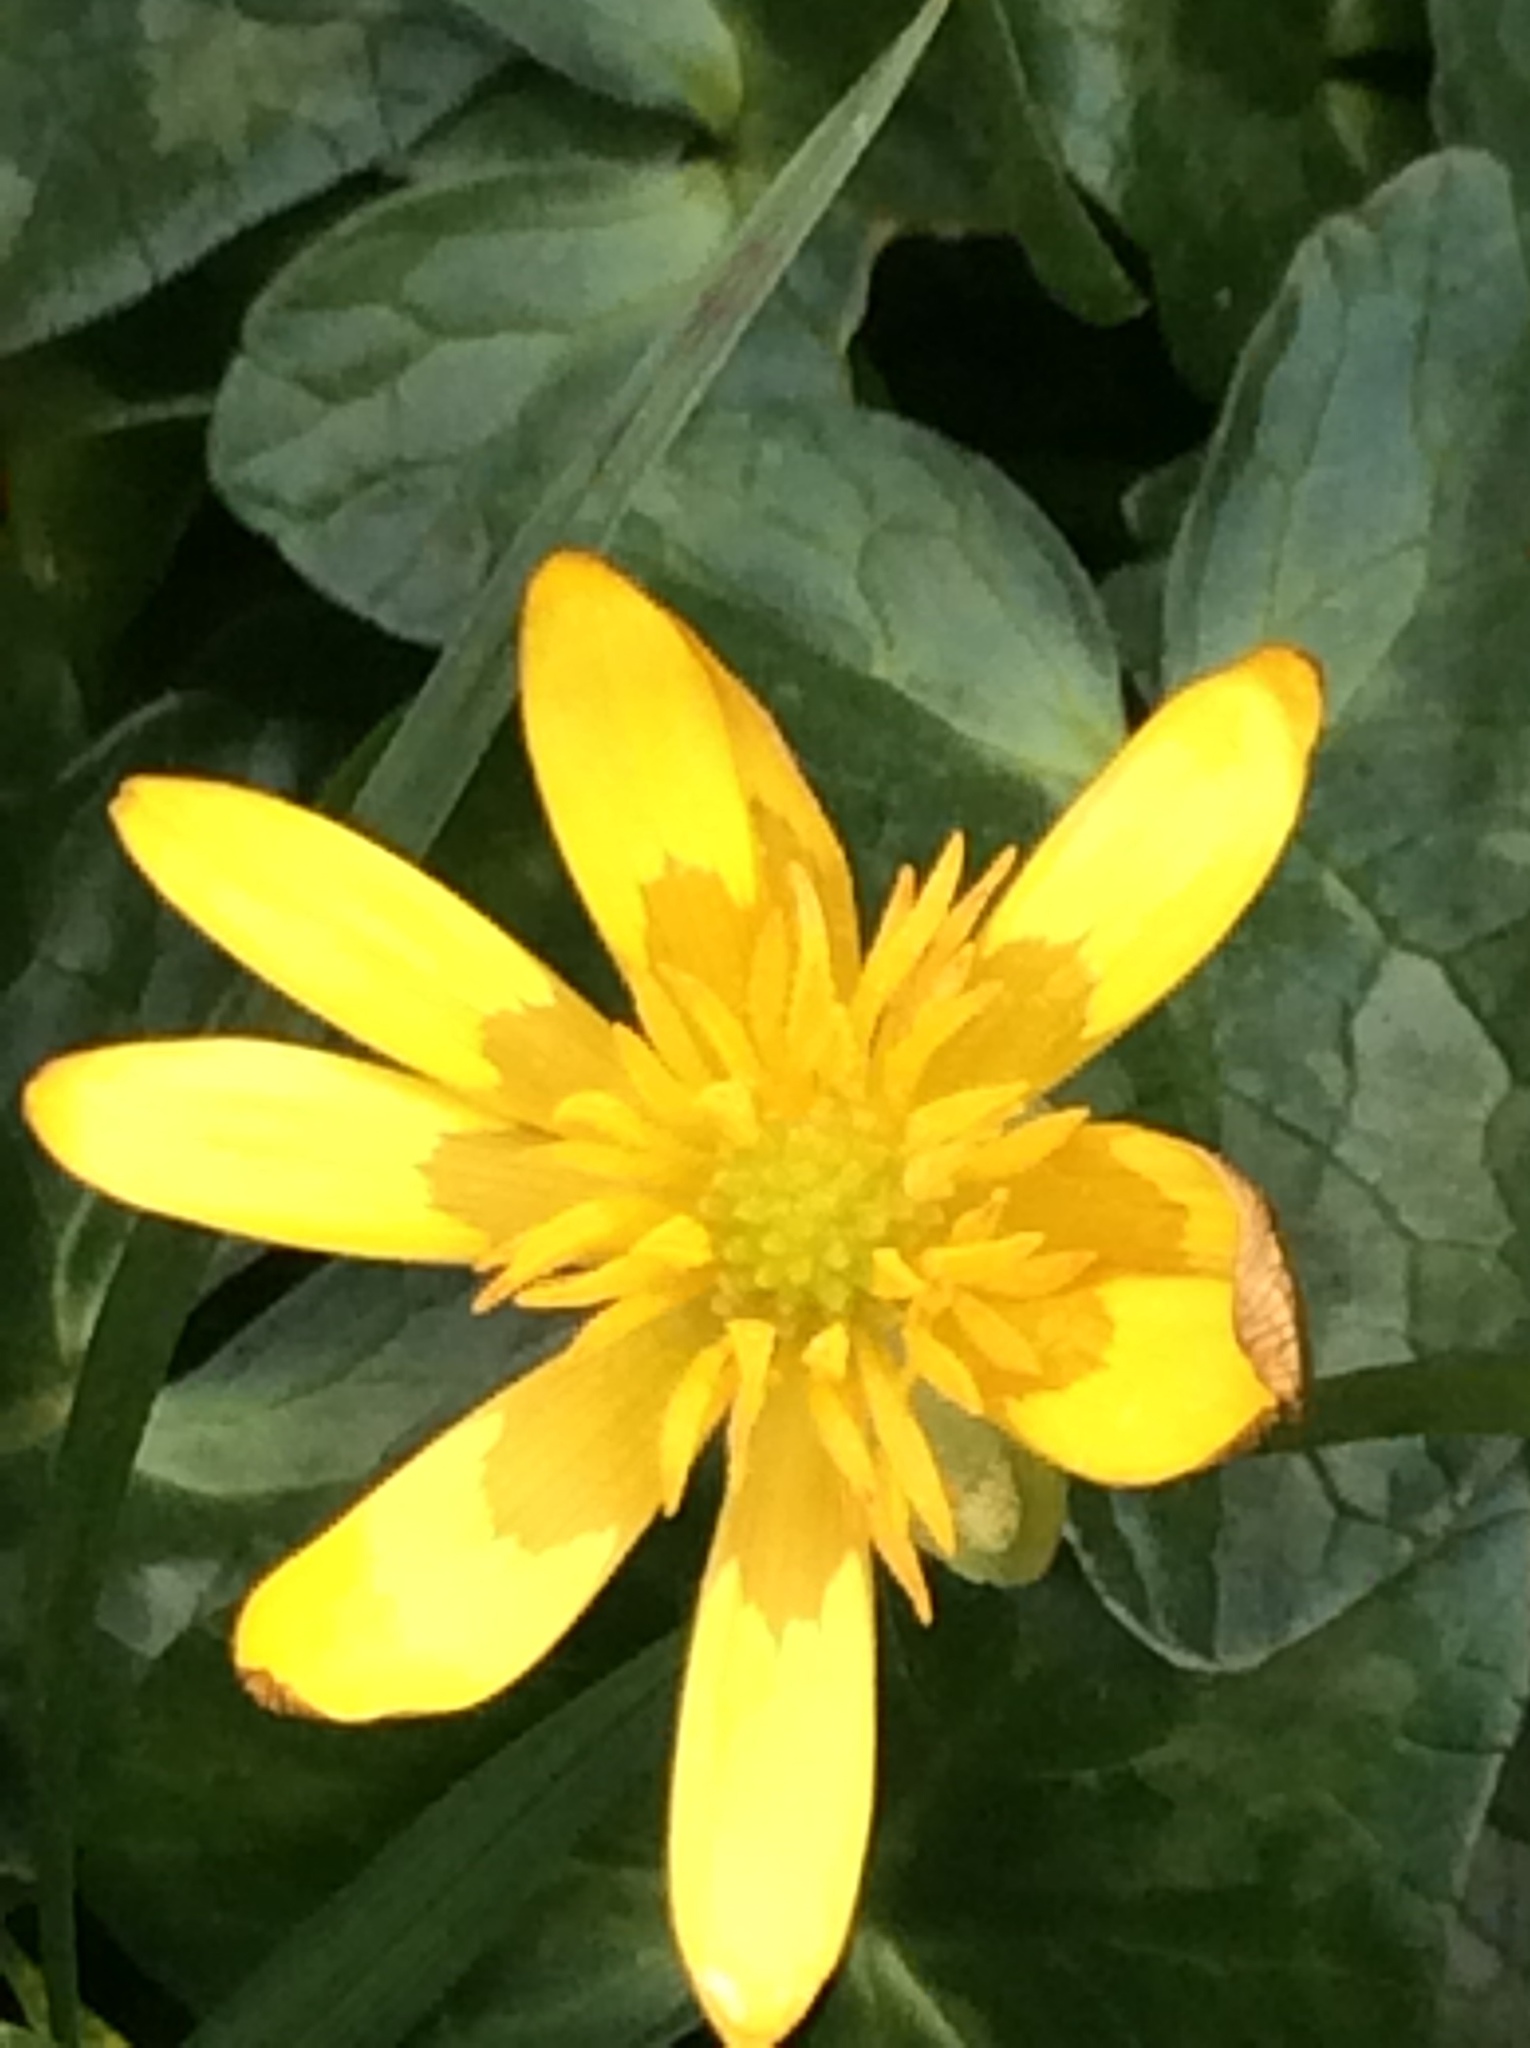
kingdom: Plantae
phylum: Tracheophyta
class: Magnoliopsida
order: Ranunculales
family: Ranunculaceae
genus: Ficaria
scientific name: Ficaria verna
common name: Lesser celandine
